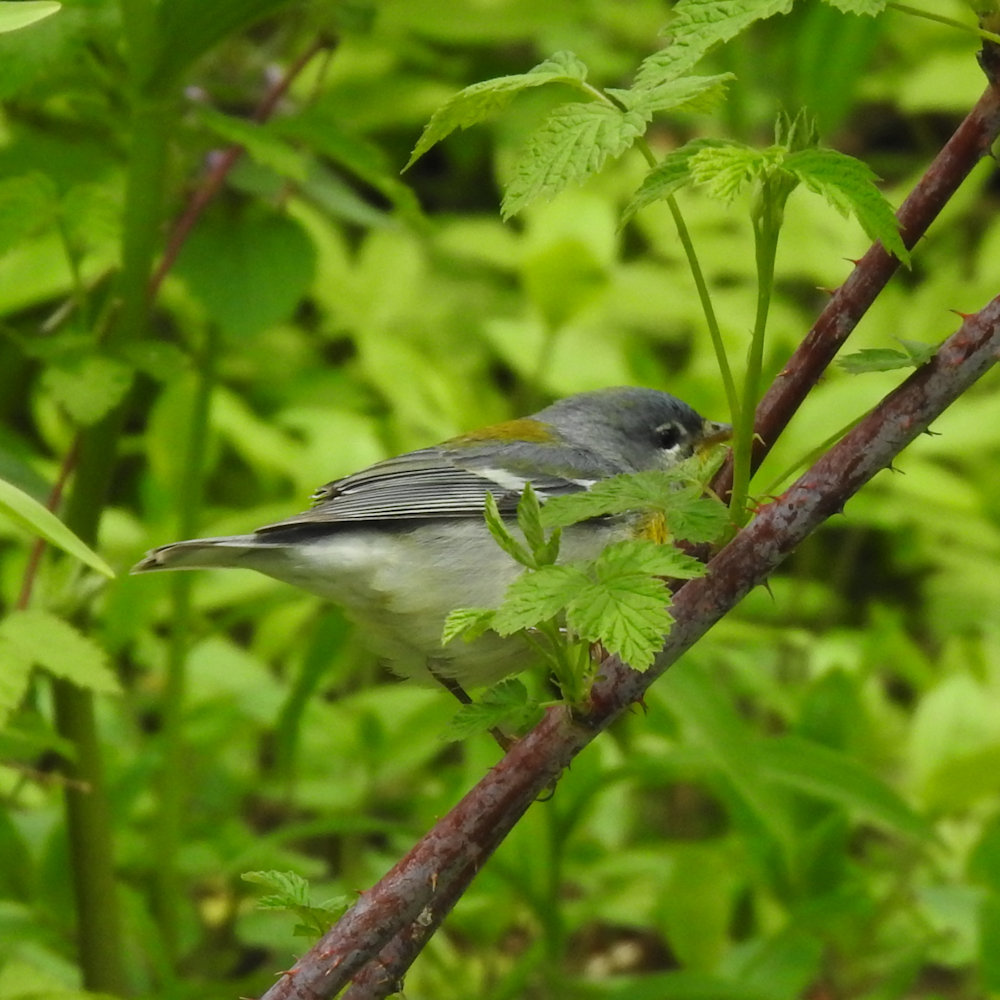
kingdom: Animalia
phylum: Chordata
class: Aves
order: Passeriformes
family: Parulidae
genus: Setophaga
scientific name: Setophaga americana
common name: Northern parula
